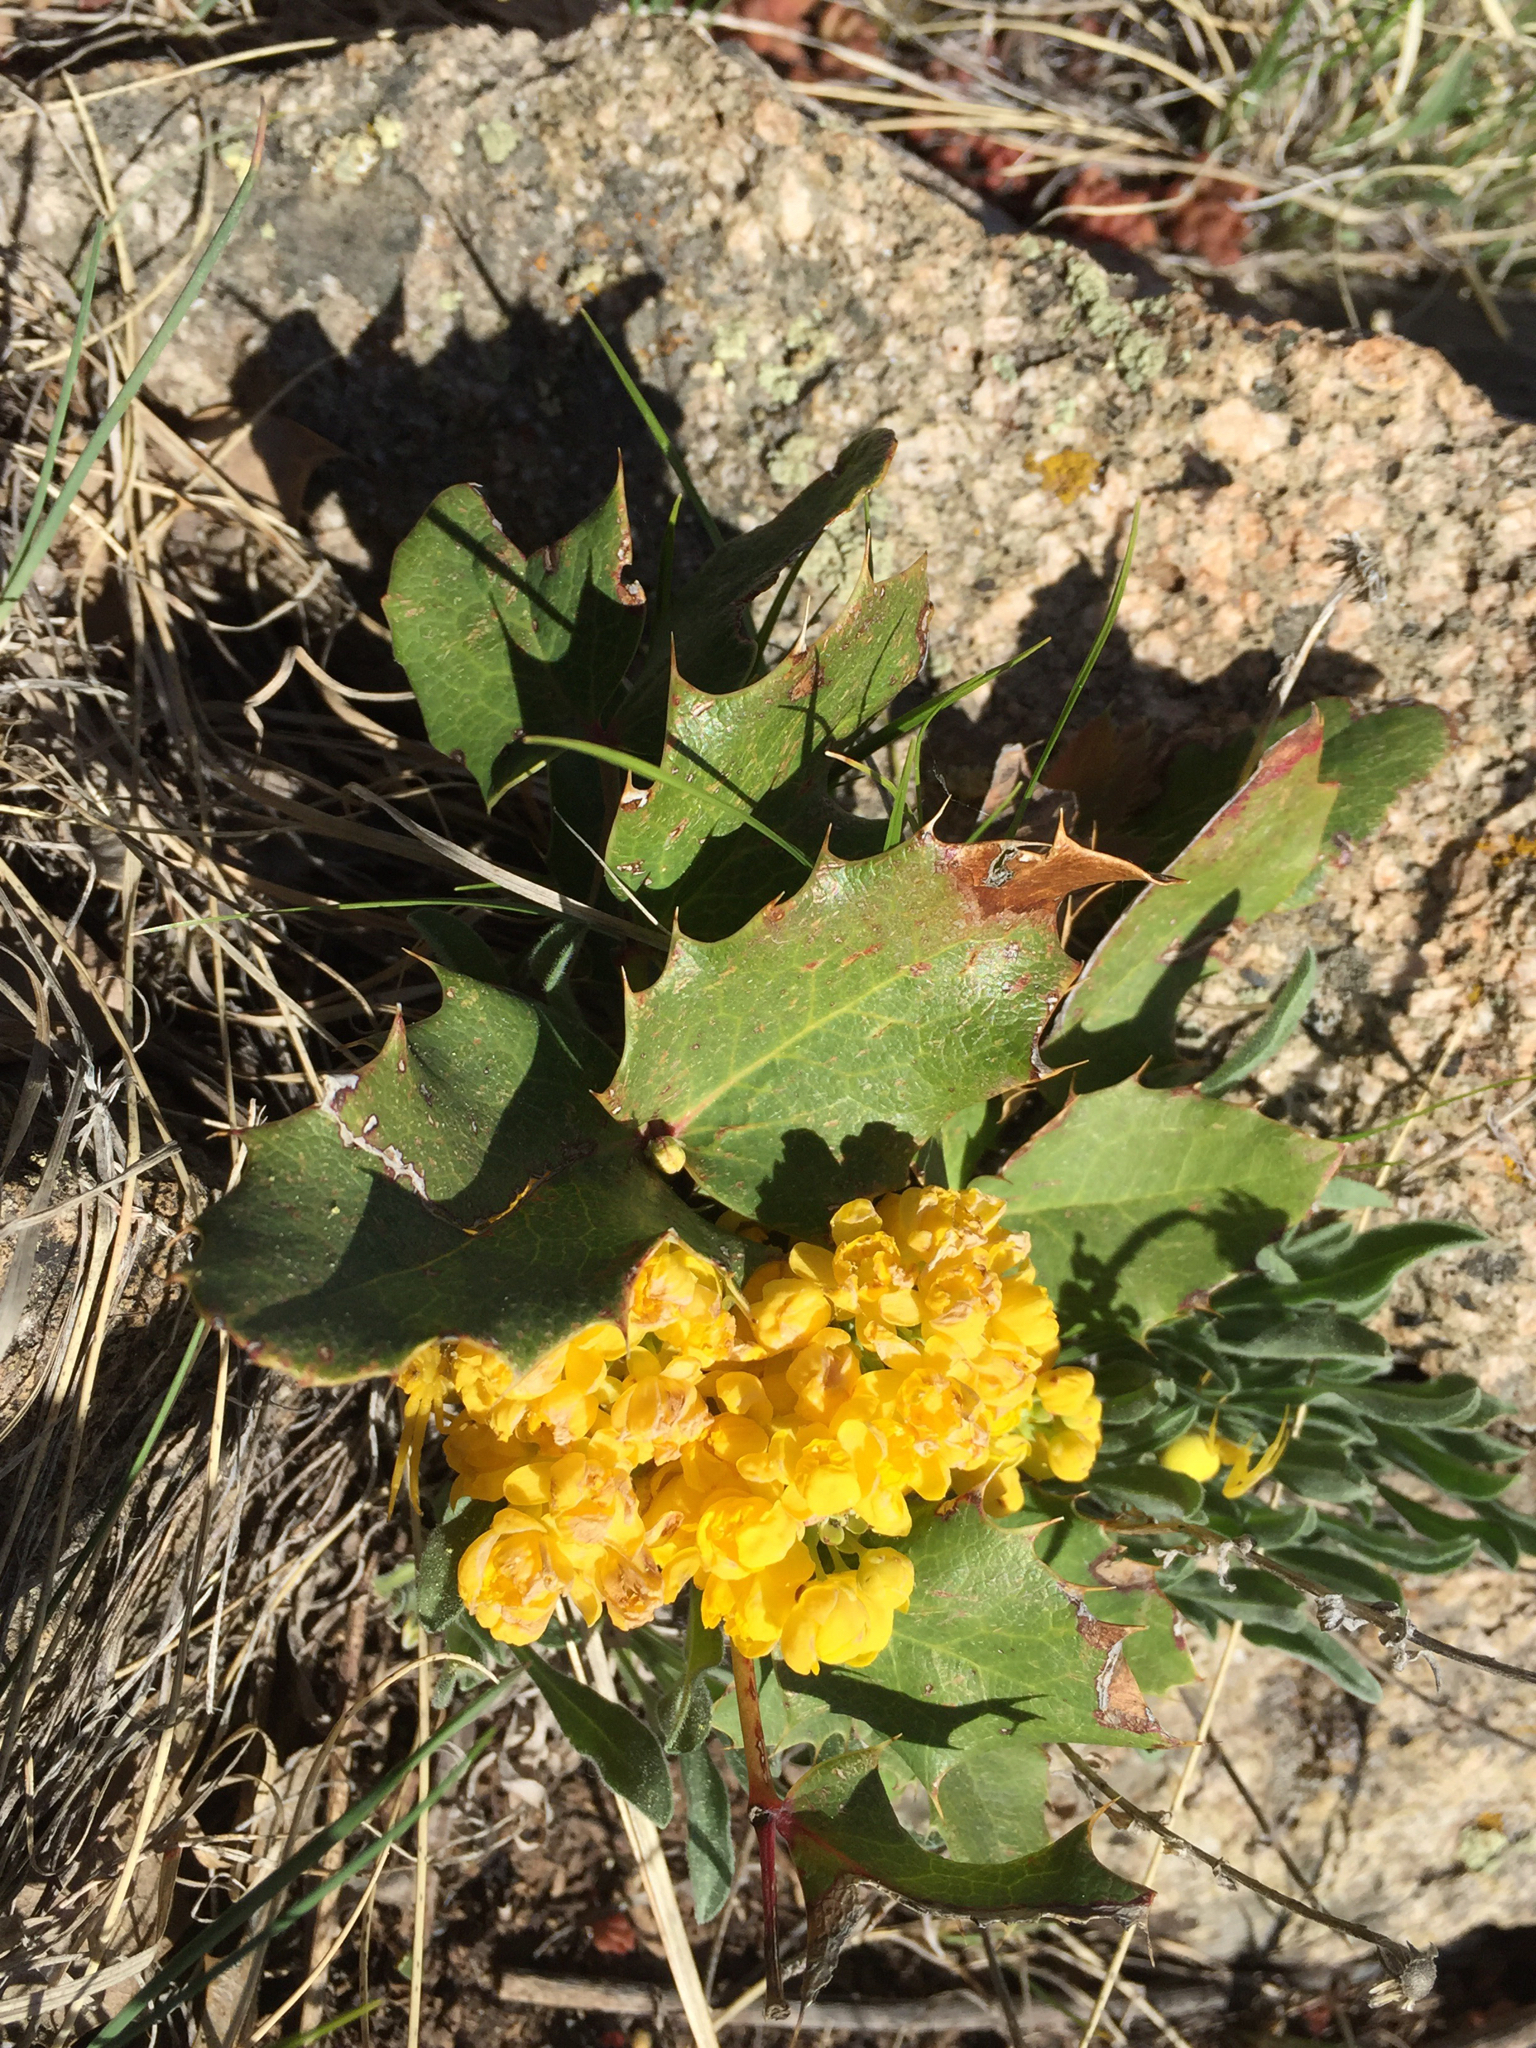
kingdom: Plantae
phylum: Tracheophyta
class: Magnoliopsida
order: Ranunculales
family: Berberidaceae
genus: Mahonia
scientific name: Mahonia repens
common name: Creeping oregon-grape
